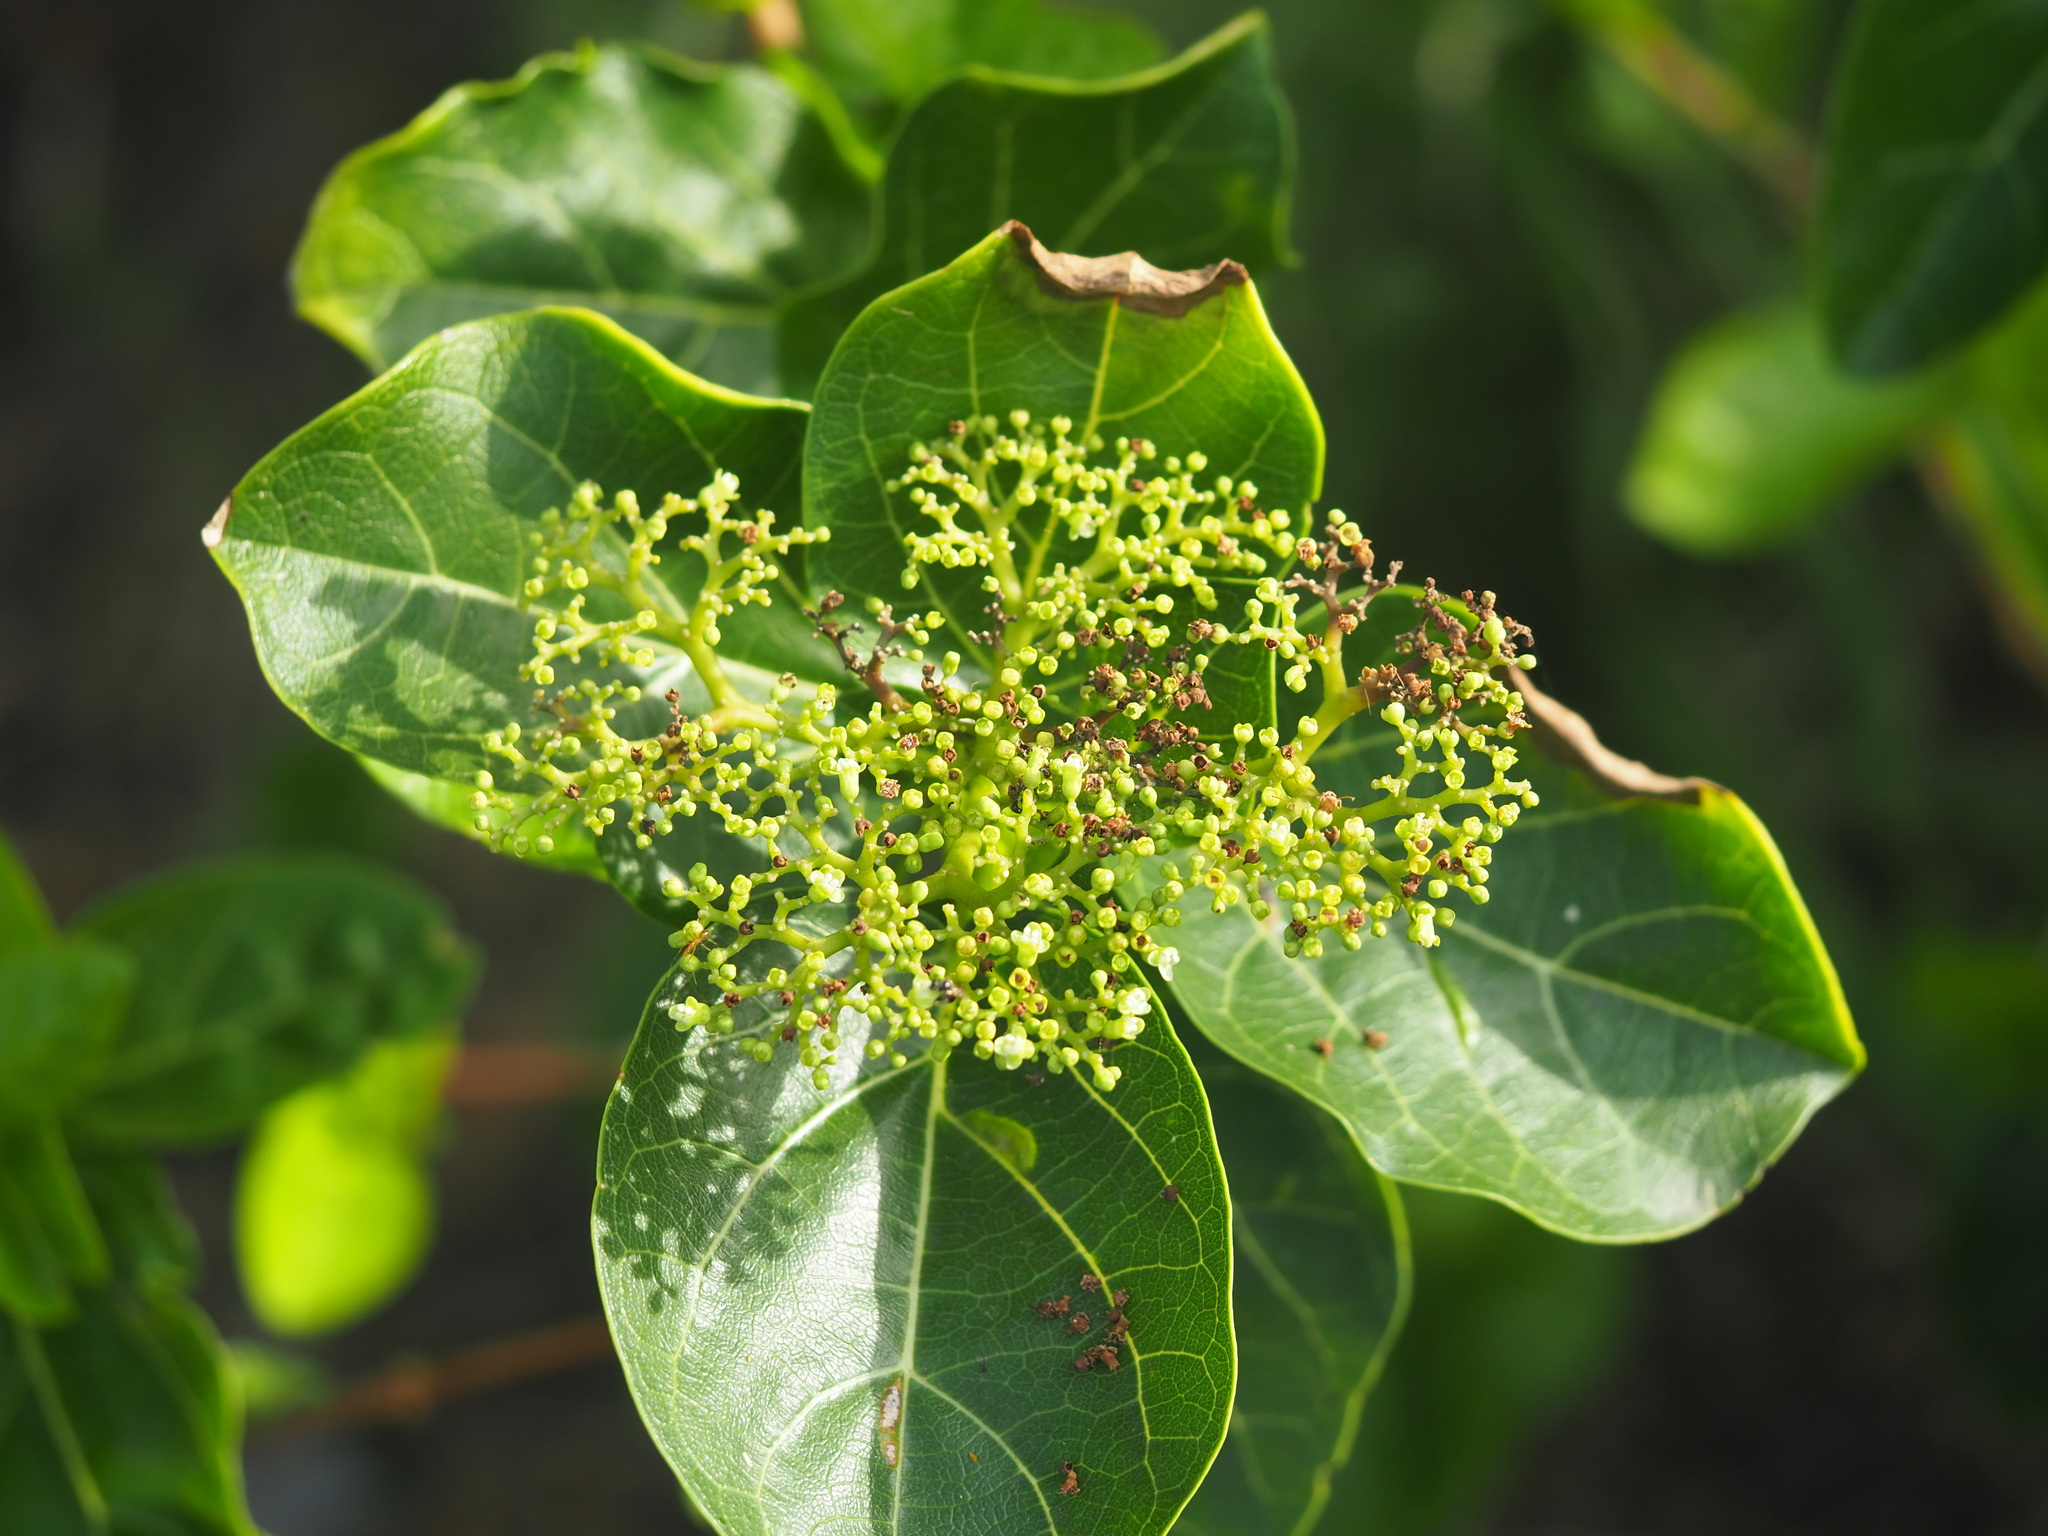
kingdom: Plantae
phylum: Tracheophyta
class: Magnoliopsida
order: Lamiales
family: Lamiaceae
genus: Premna
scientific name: Premna serratifolia
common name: Bastard guelder
